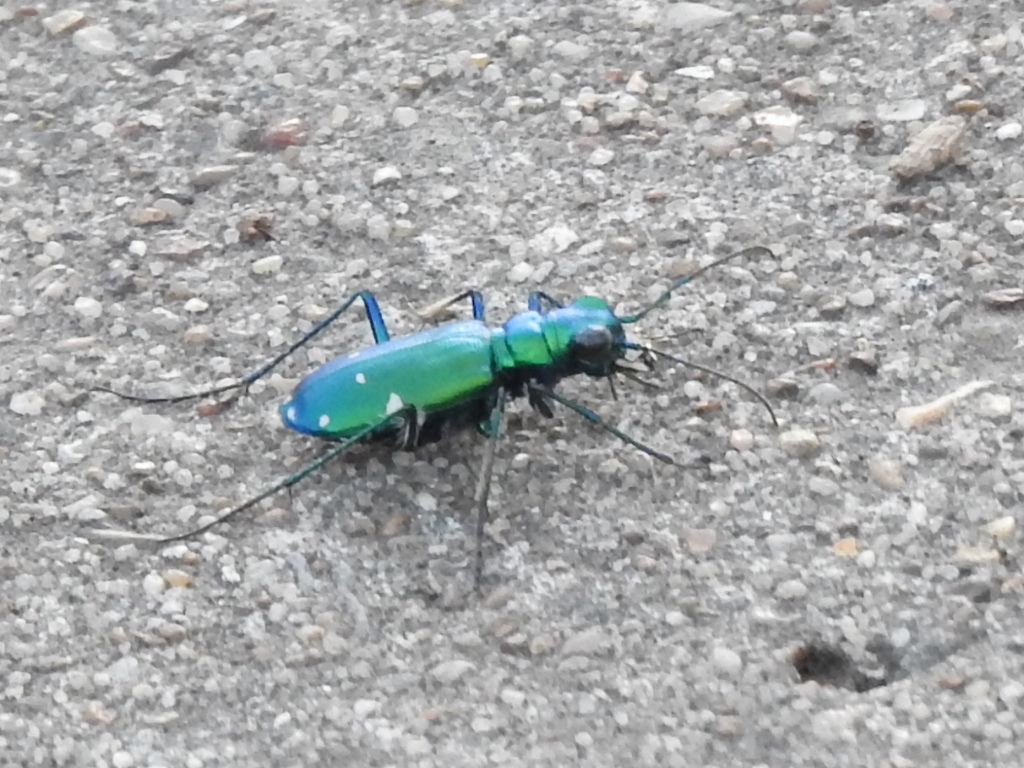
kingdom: Animalia
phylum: Arthropoda
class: Insecta
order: Coleoptera
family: Carabidae
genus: Cicindela
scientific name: Cicindela sexguttata
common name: Six-spotted tiger beetle
